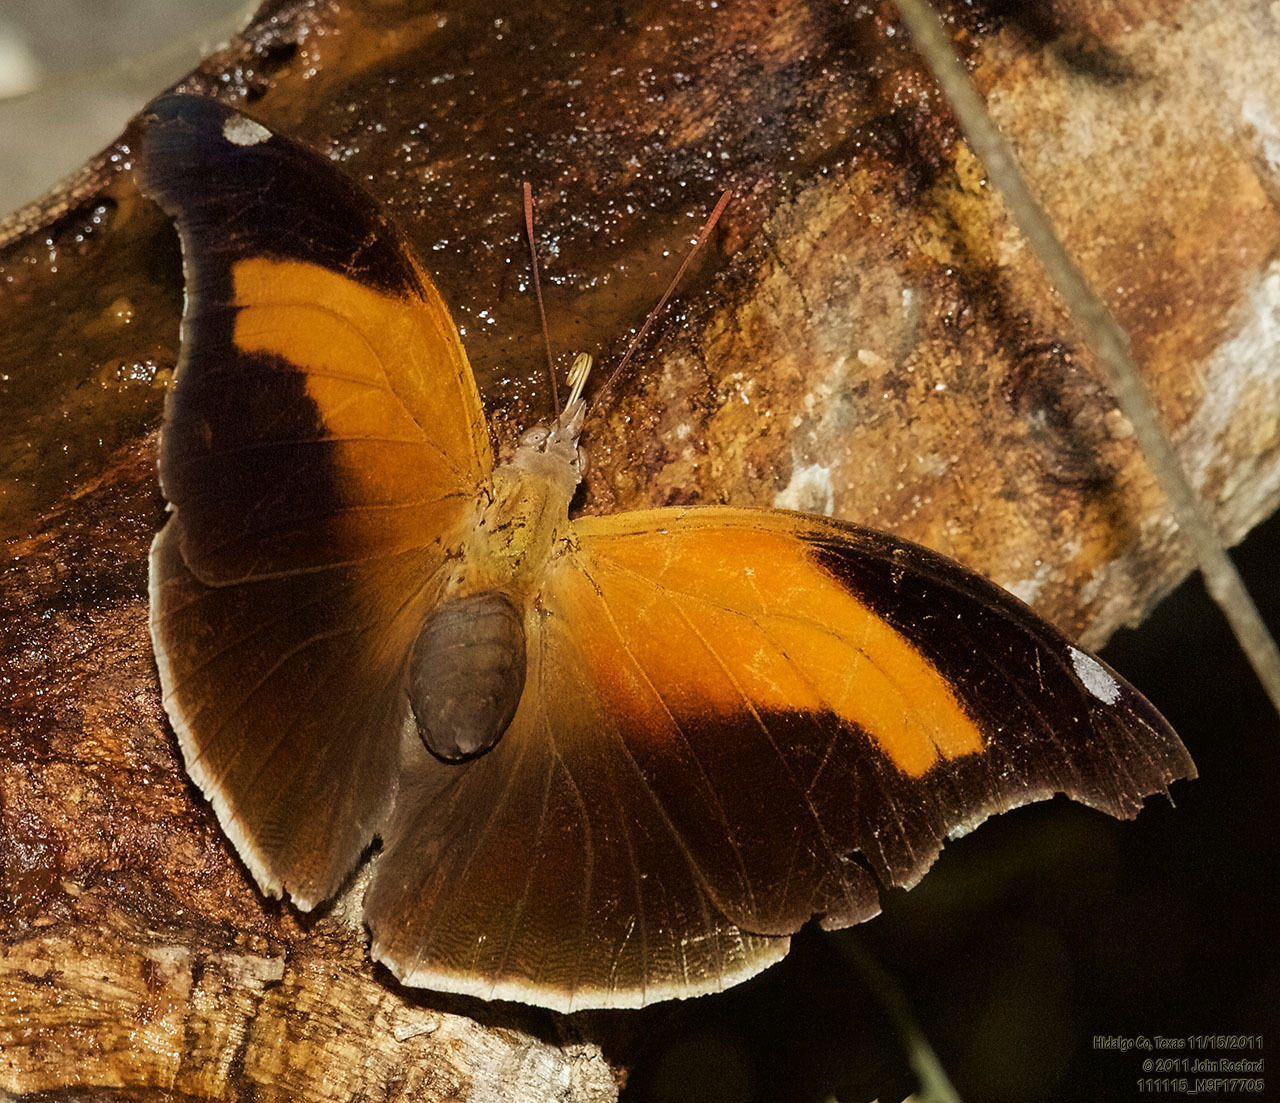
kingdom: Animalia
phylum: Arthropoda
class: Insecta
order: Lepidoptera
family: Nymphalidae
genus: Historis
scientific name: Historis odius
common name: Orion cecropian
